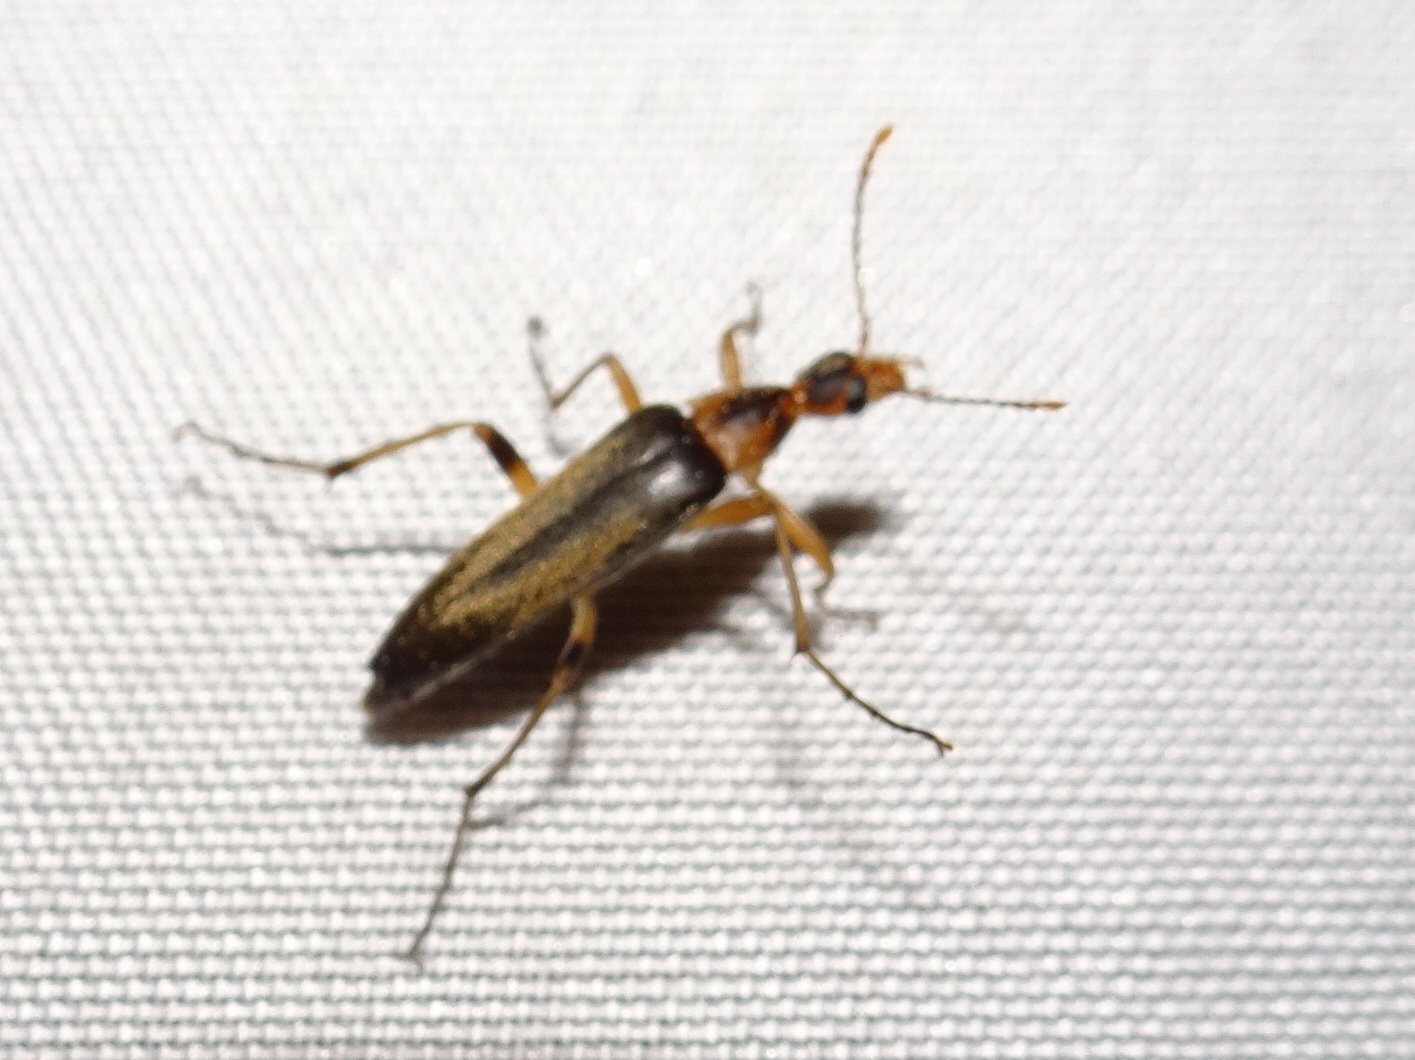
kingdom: Animalia
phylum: Arthropoda
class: Insecta
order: Coleoptera
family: Stenotrachelidae
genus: Cephaloon
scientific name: Cephaloon lepturides
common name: False leptura beetle
